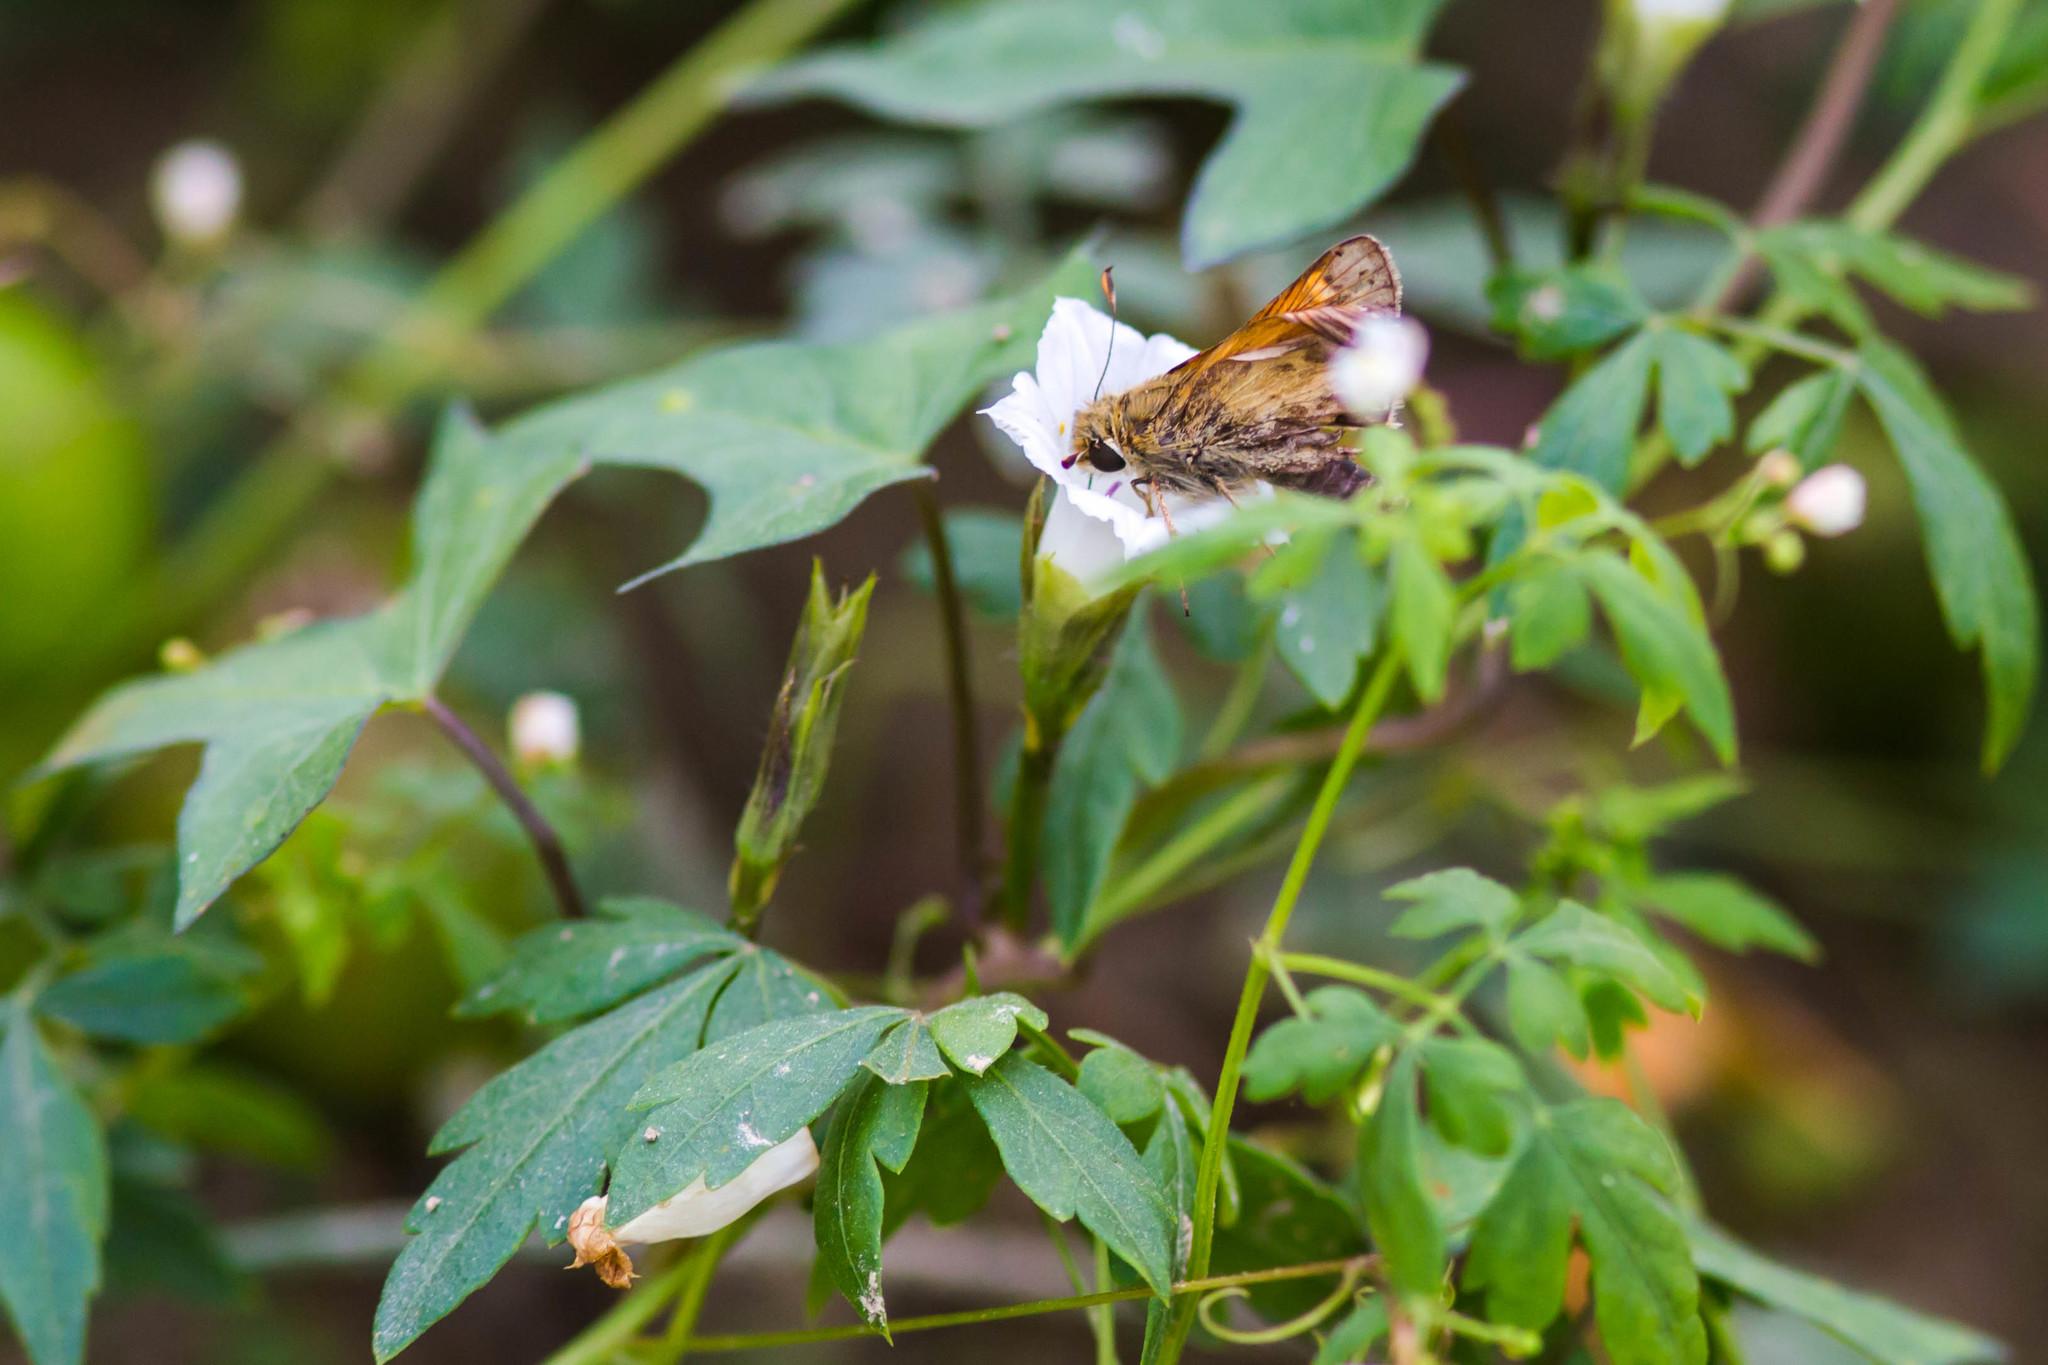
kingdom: Animalia
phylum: Arthropoda
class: Insecta
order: Lepidoptera
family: Hesperiidae
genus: Atalopedes
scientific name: Atalopedes
